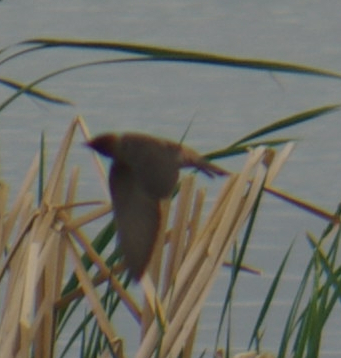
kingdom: Animalia
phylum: Chordata
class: Aves
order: Passeriformes
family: Hirundinidae
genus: Petrochelidon
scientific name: Petrochelidon pyrrhonota
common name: American cliff swallow
